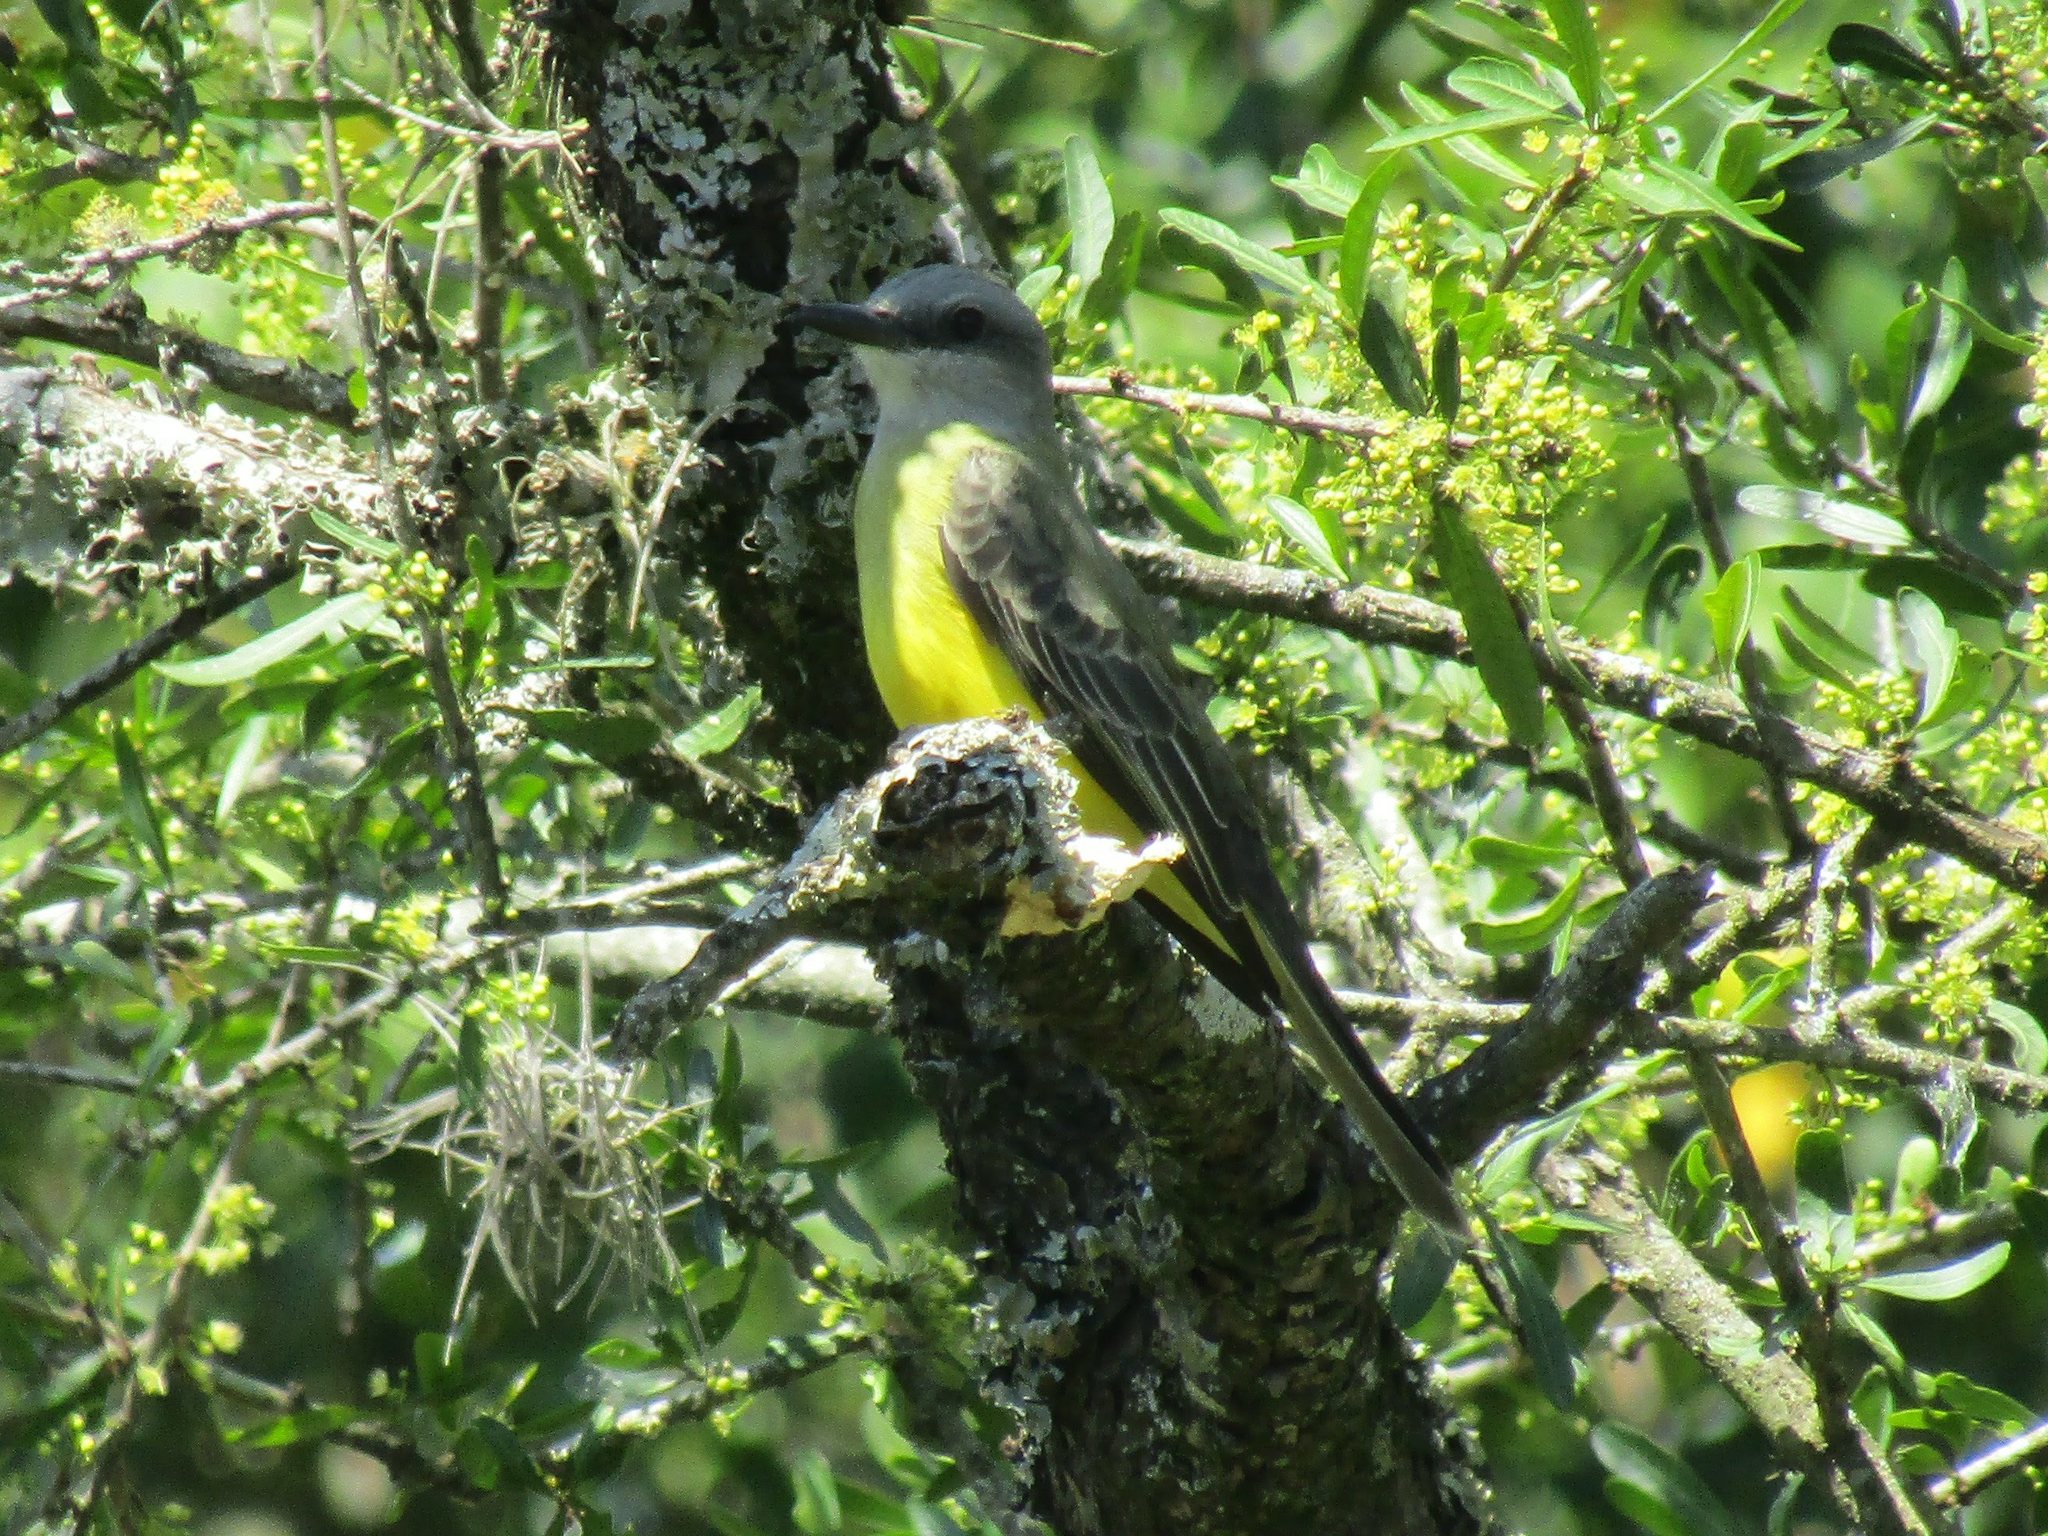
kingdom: Animalia
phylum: Chordata
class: Aves
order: Passeriformes
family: Tyrannidae
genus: Tyrannus
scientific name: Tyrannus melancholicus
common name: Tropical kingbird
